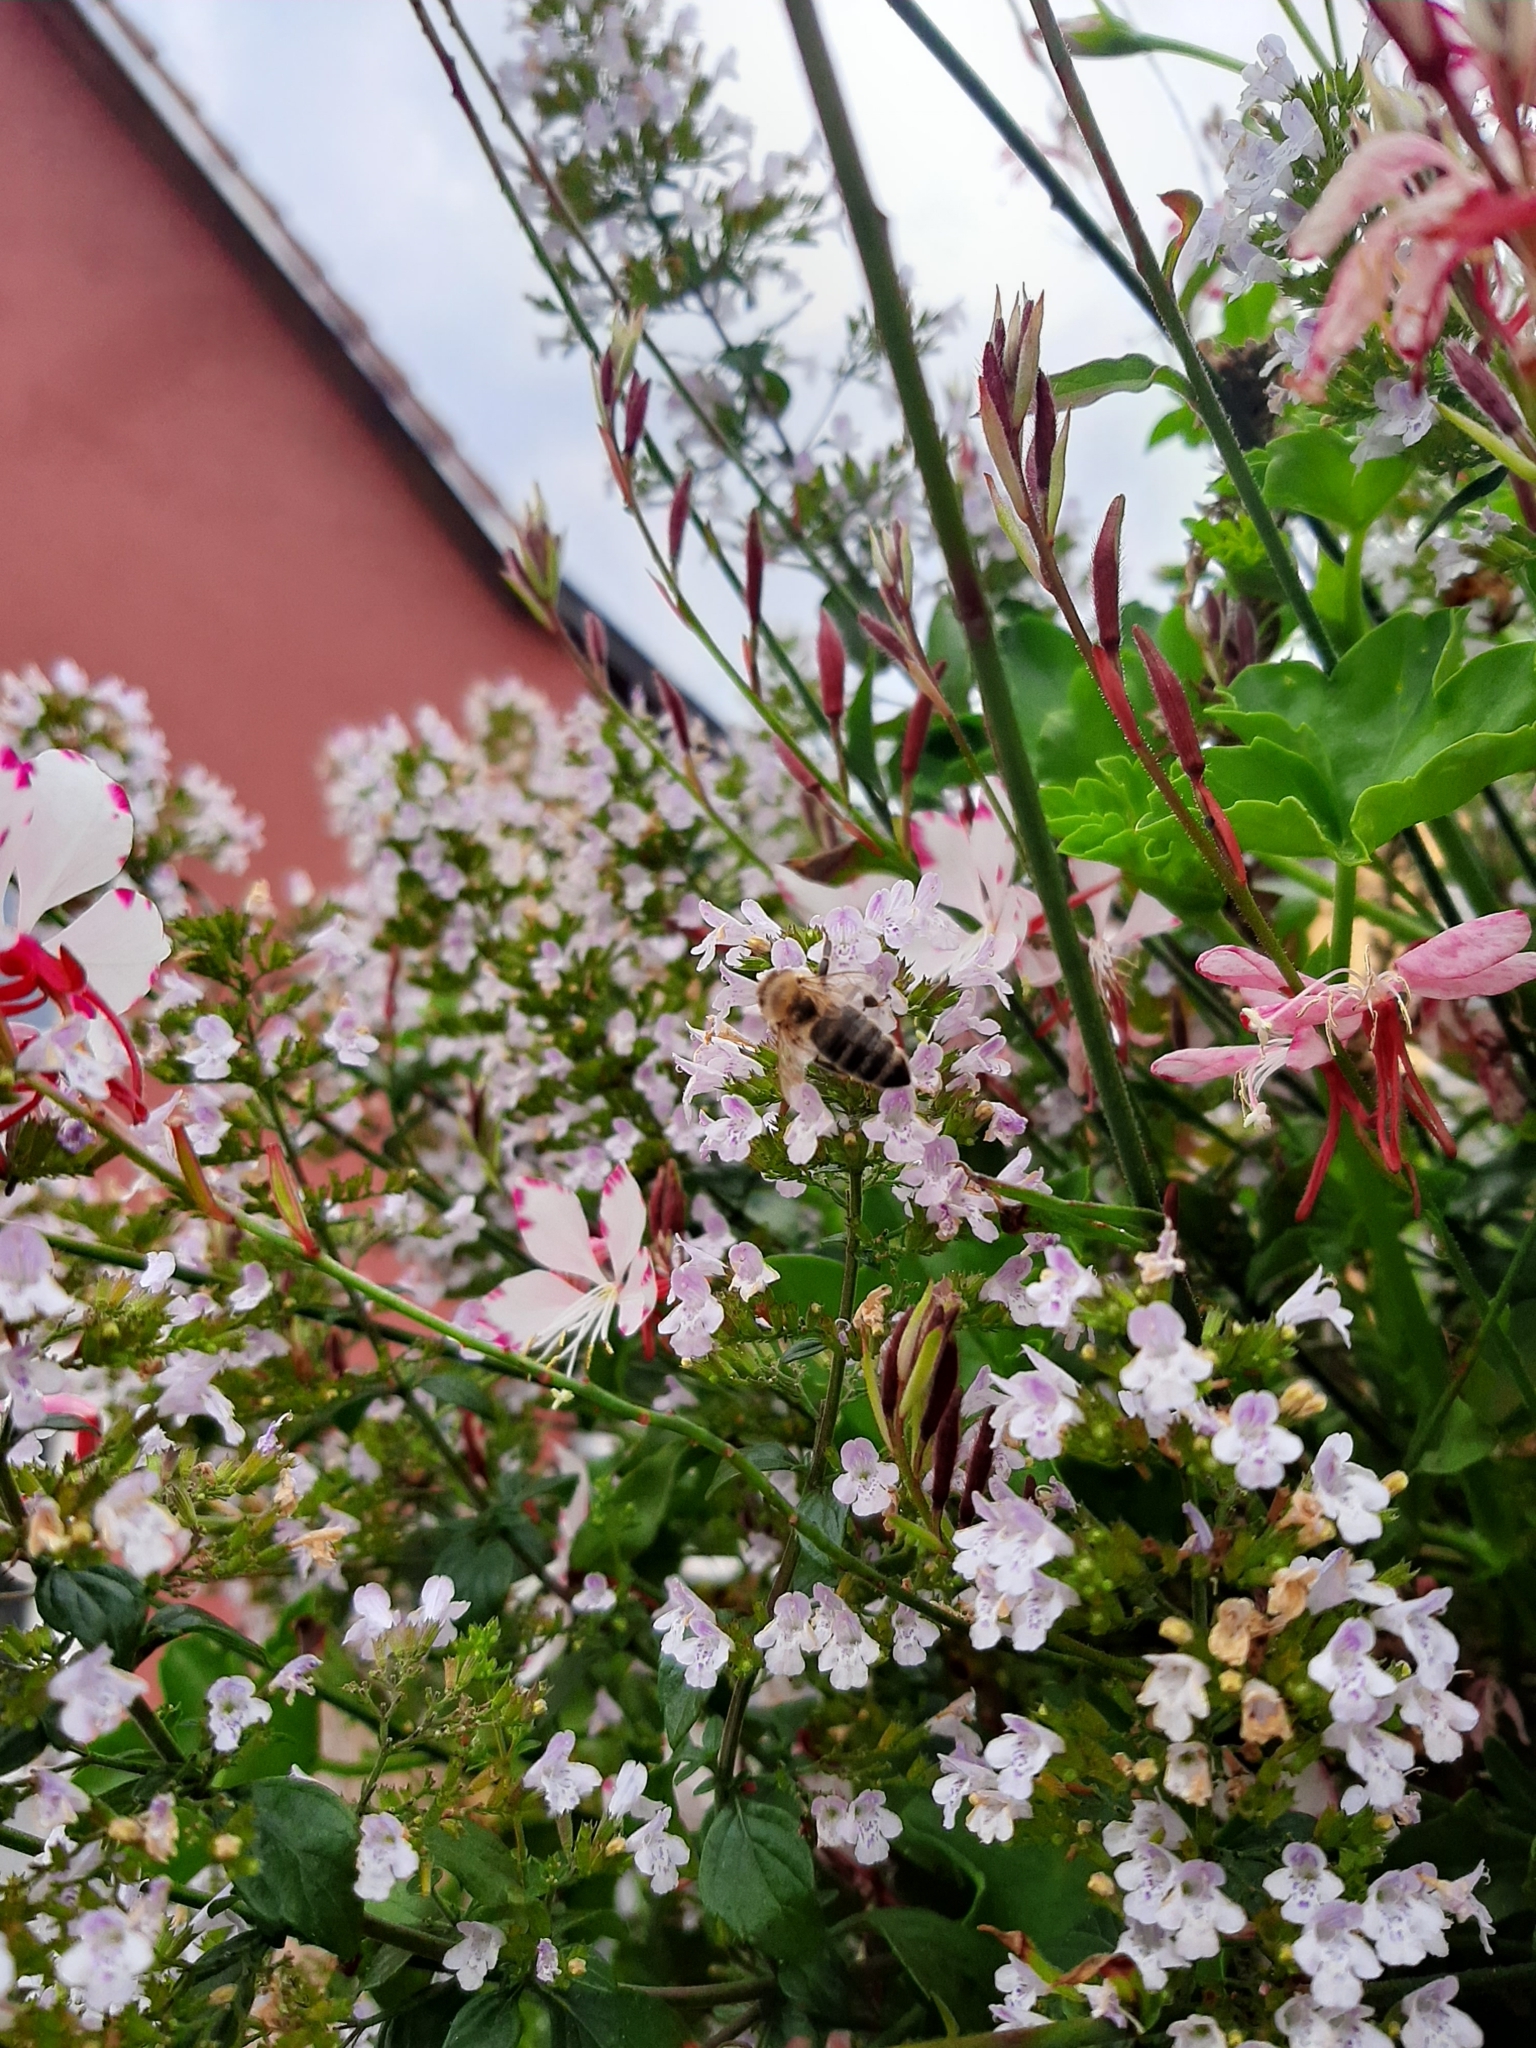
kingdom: Animalia
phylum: Arthropoda
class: Insecta
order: Hymenoptera
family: Apidae
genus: Apis
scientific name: Apis mellifera
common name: Honey bee
